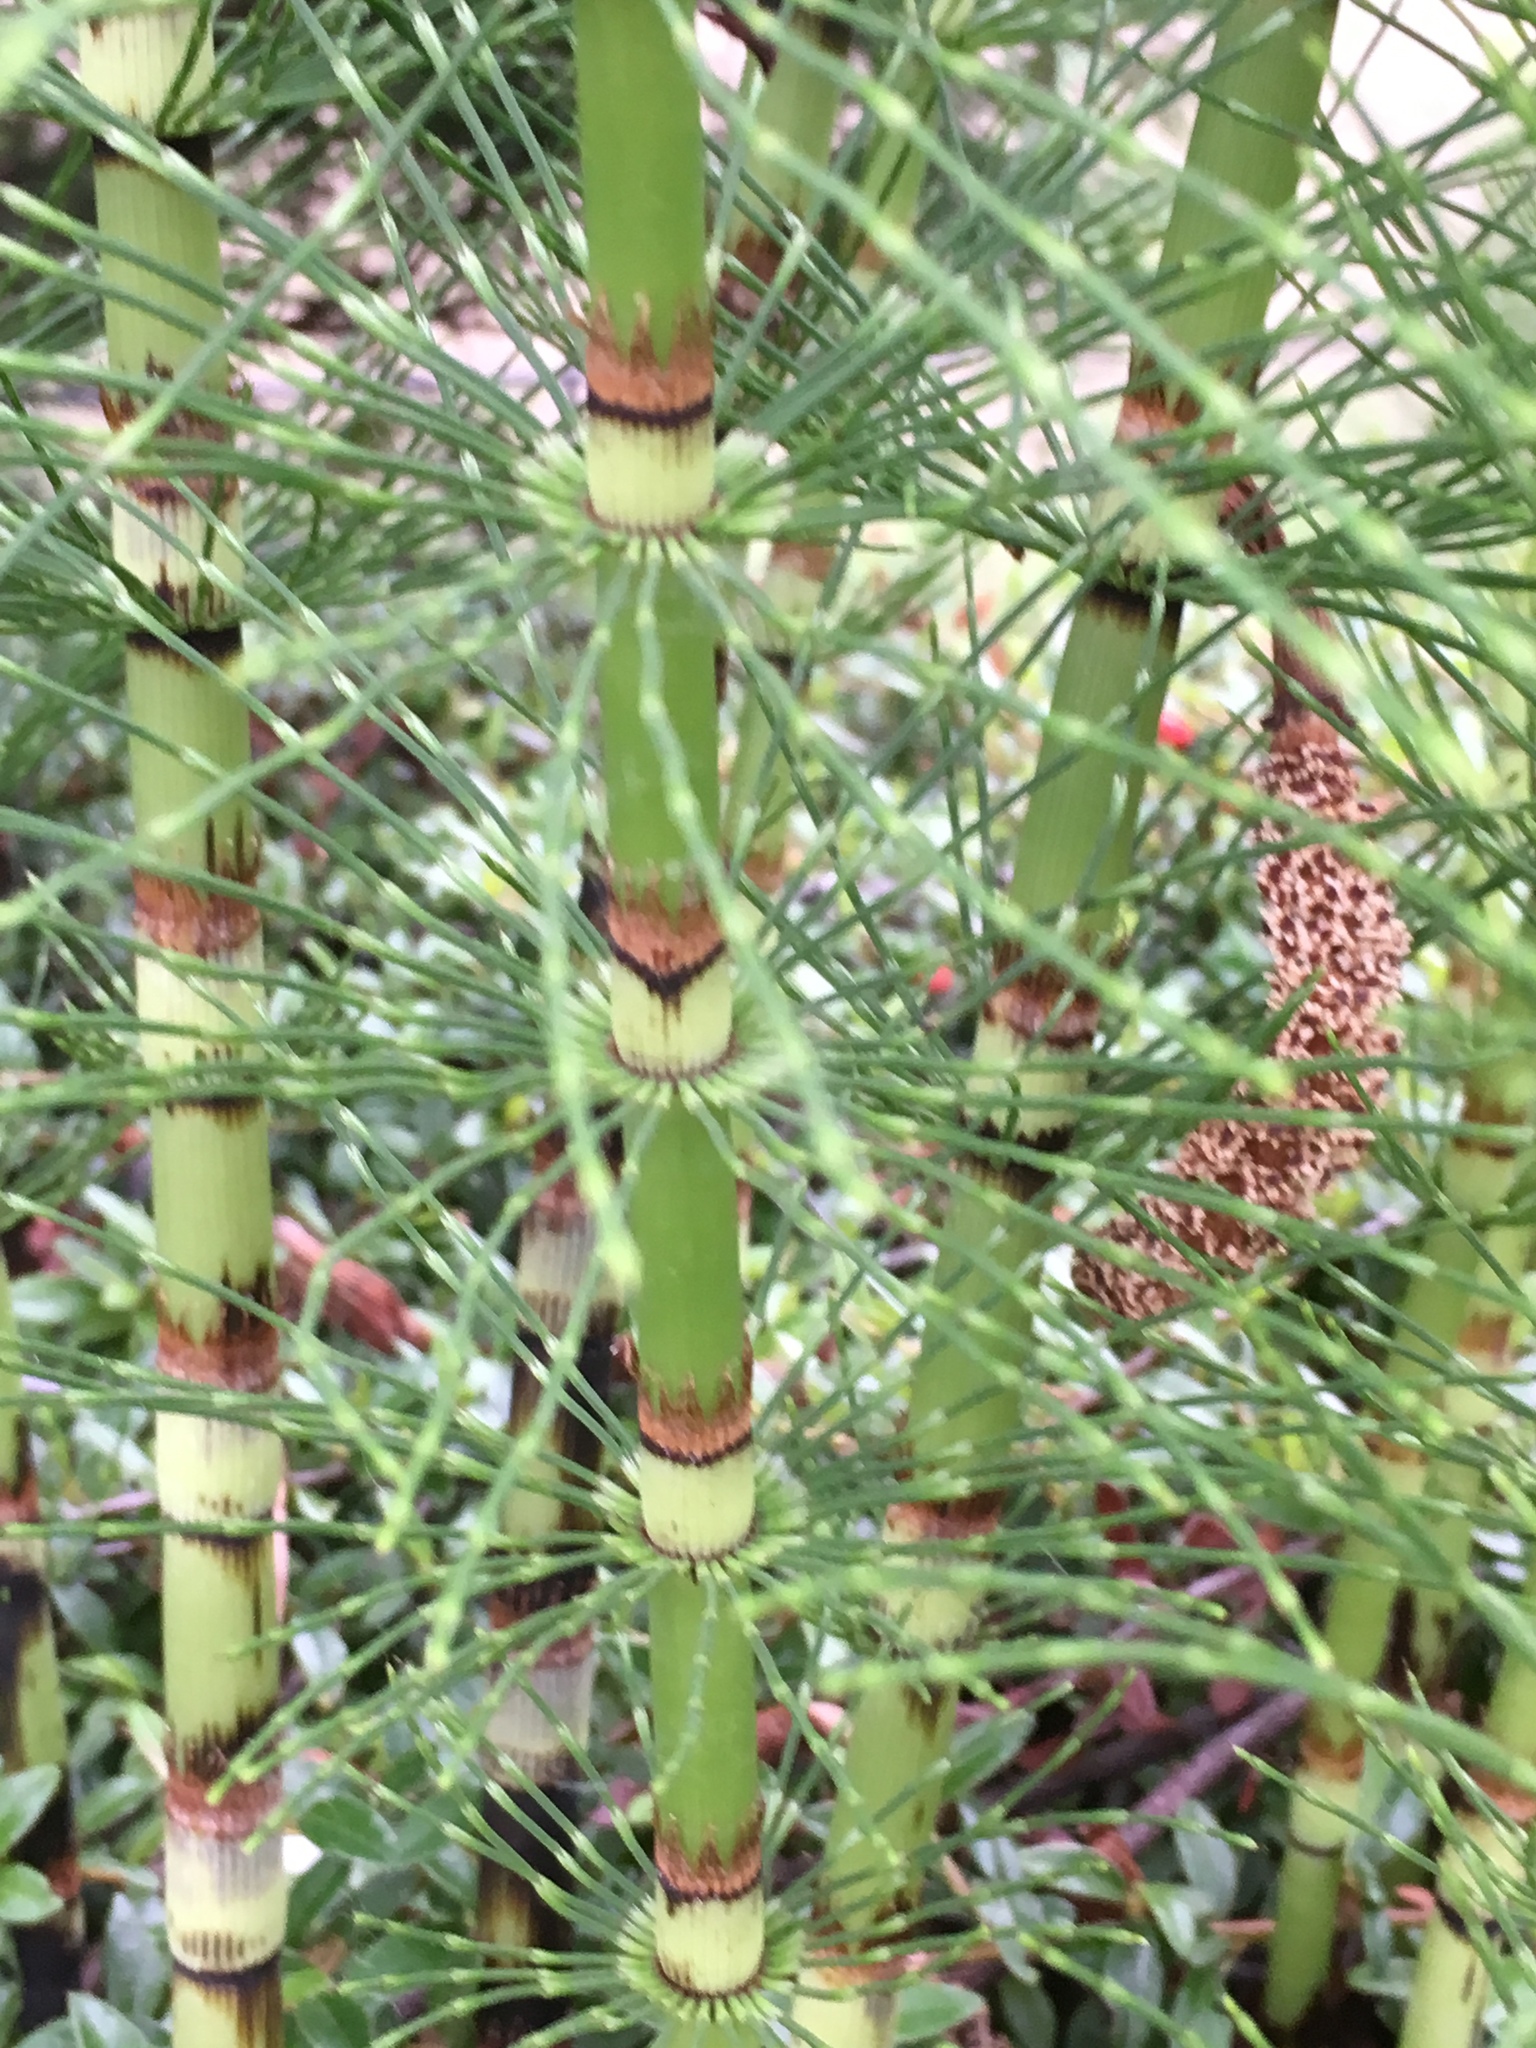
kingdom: Plantae
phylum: Tracheophyta
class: Polypodiopsida
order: Equisetales
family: Equisetaceae
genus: Equisetum
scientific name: Equisetum braunii
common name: Braun's horsetail
